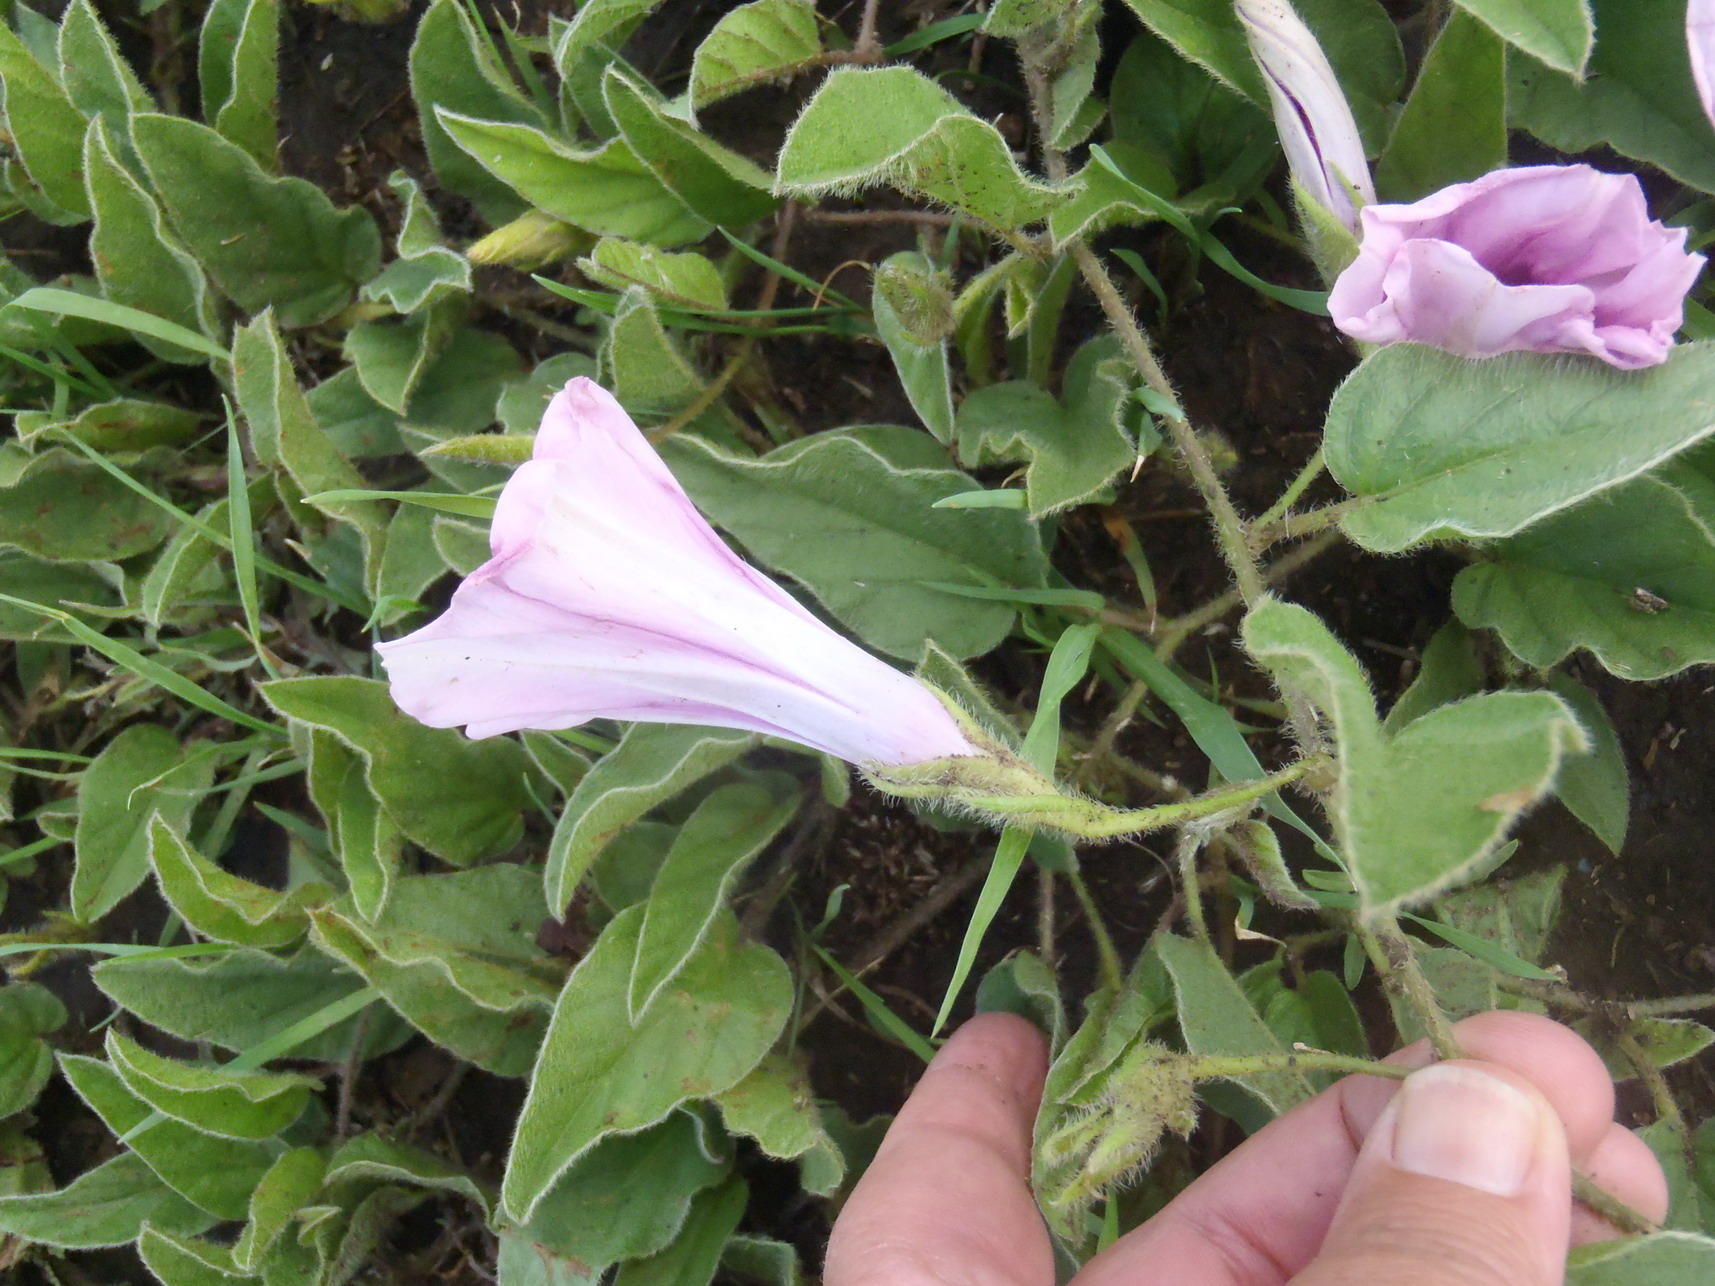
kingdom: Plantae
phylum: Tracheophyta
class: Magnoliopsida
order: Solanales
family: Convolvulaceae
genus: Ipomoea
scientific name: Ipomoea oblongata
